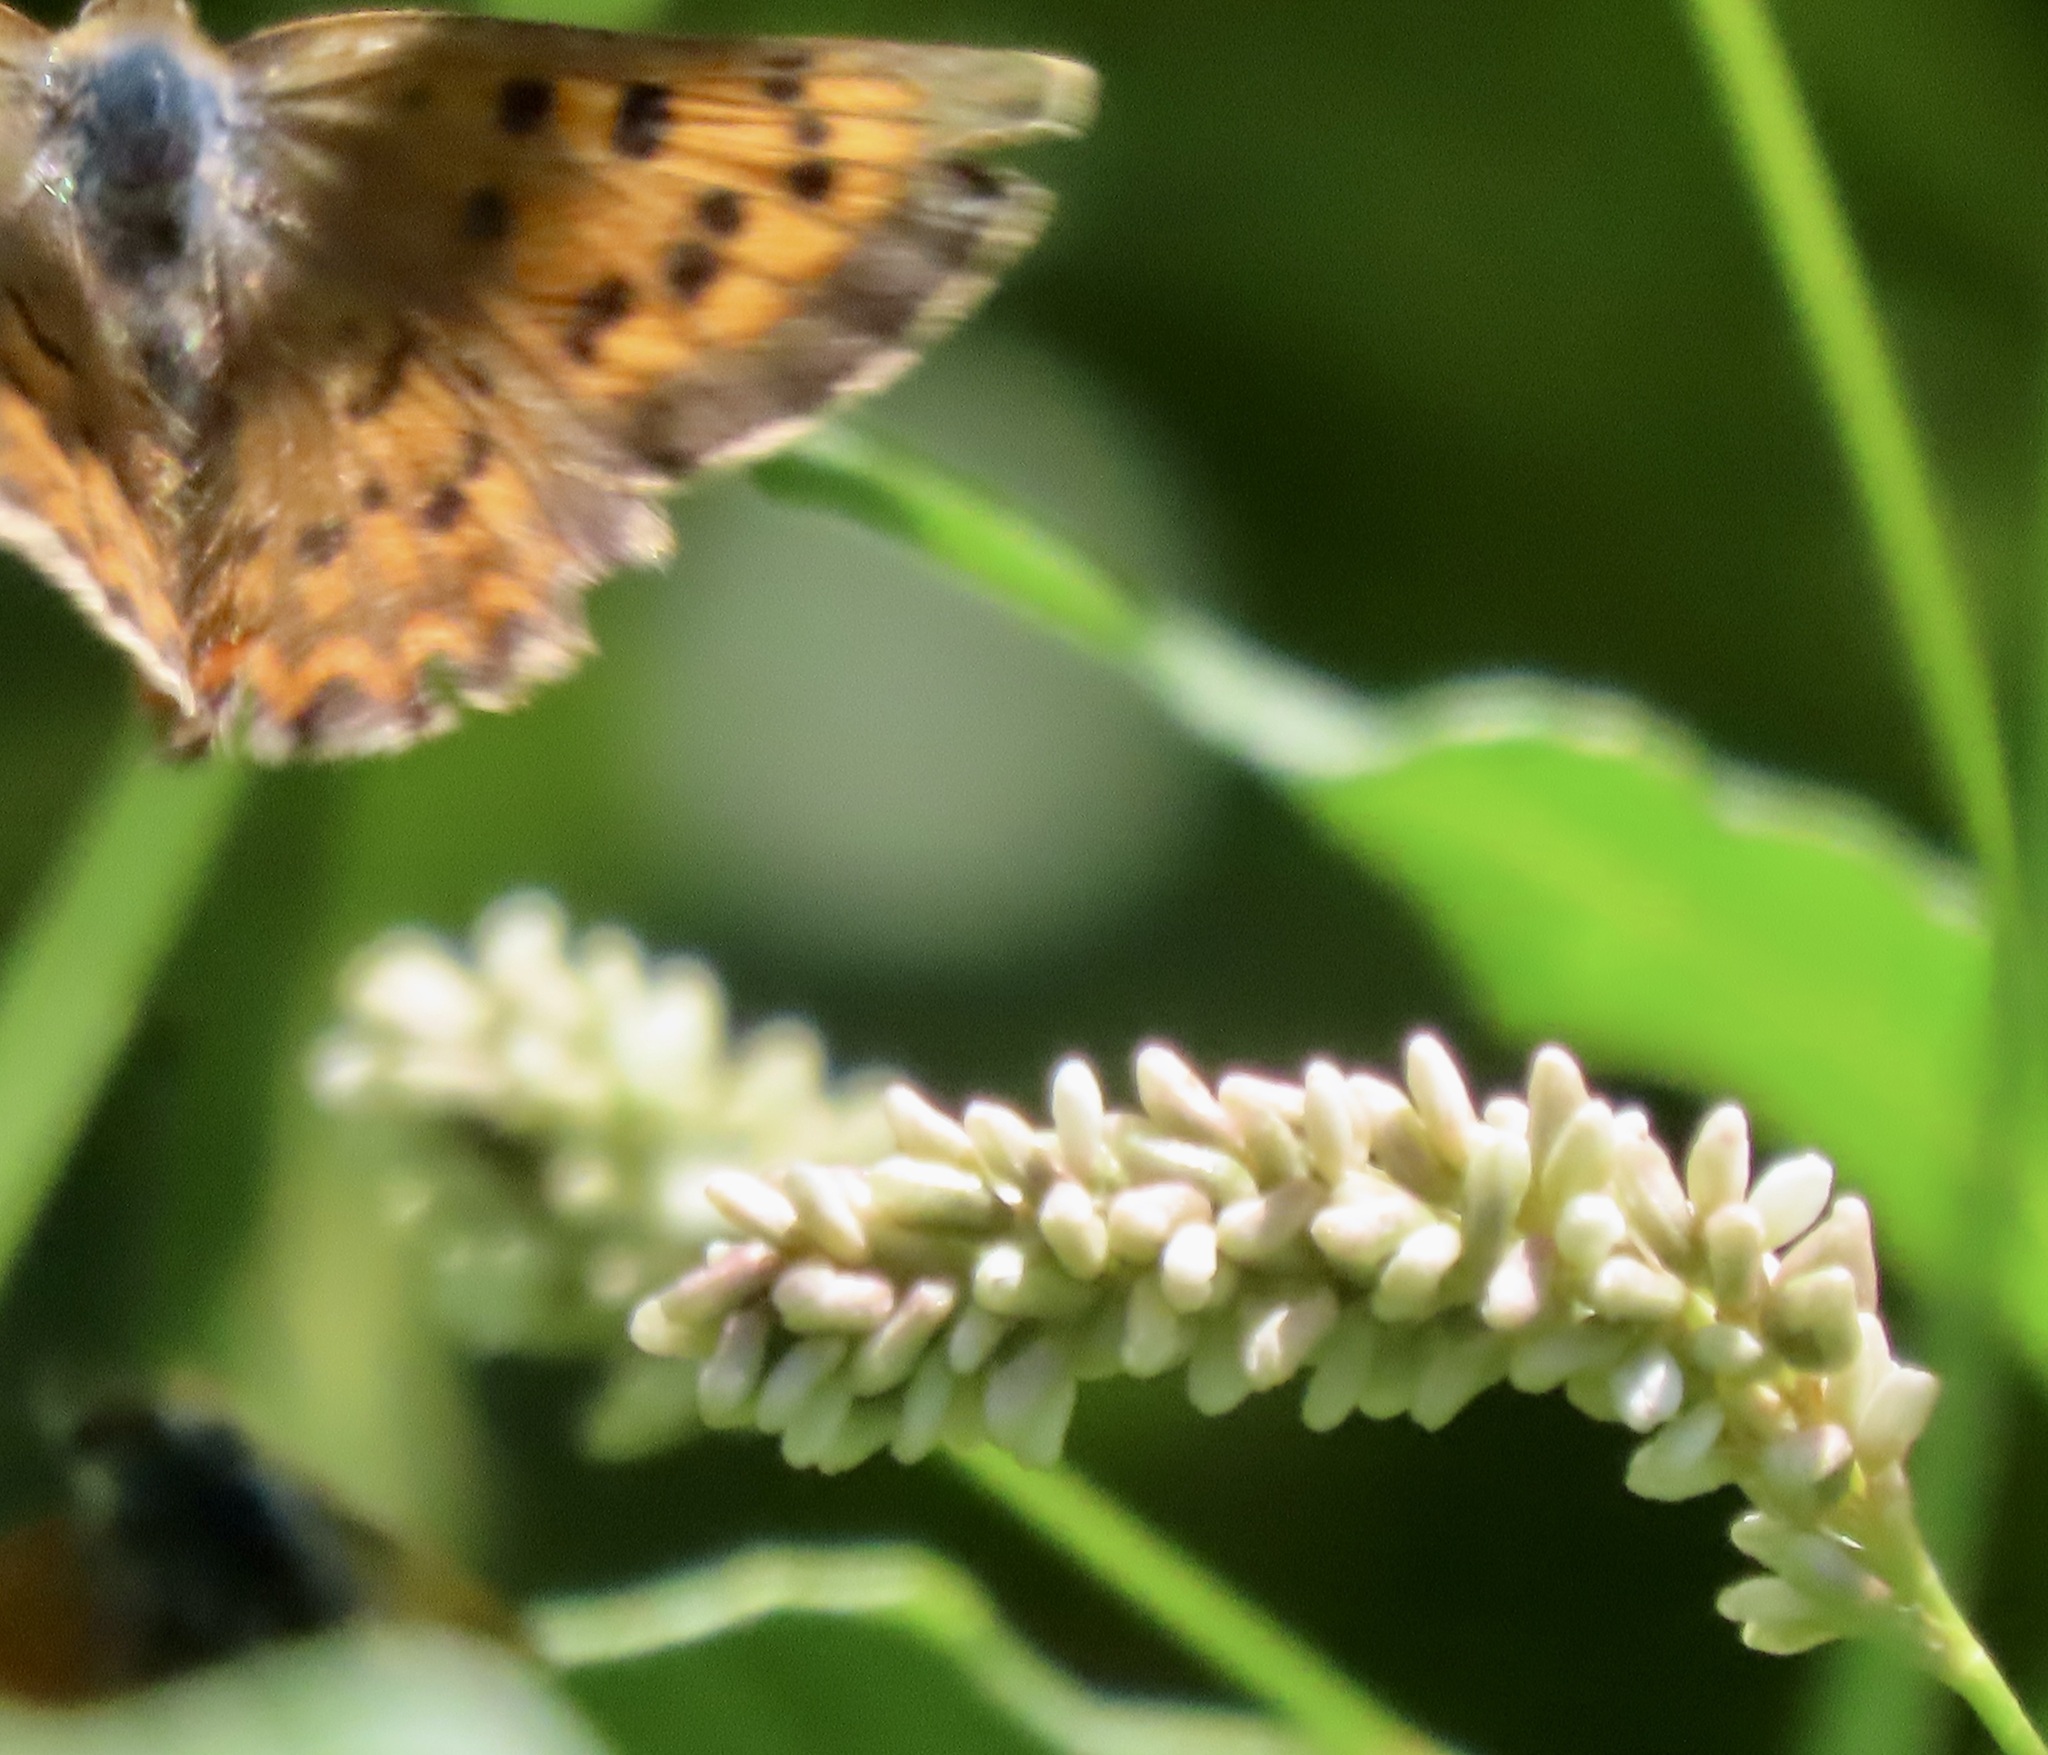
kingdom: Animalia
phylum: Arthropoda
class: Insecta
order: Lepidoptera
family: Lycaenidae
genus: Tharsalea
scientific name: Tharsalea helloides
